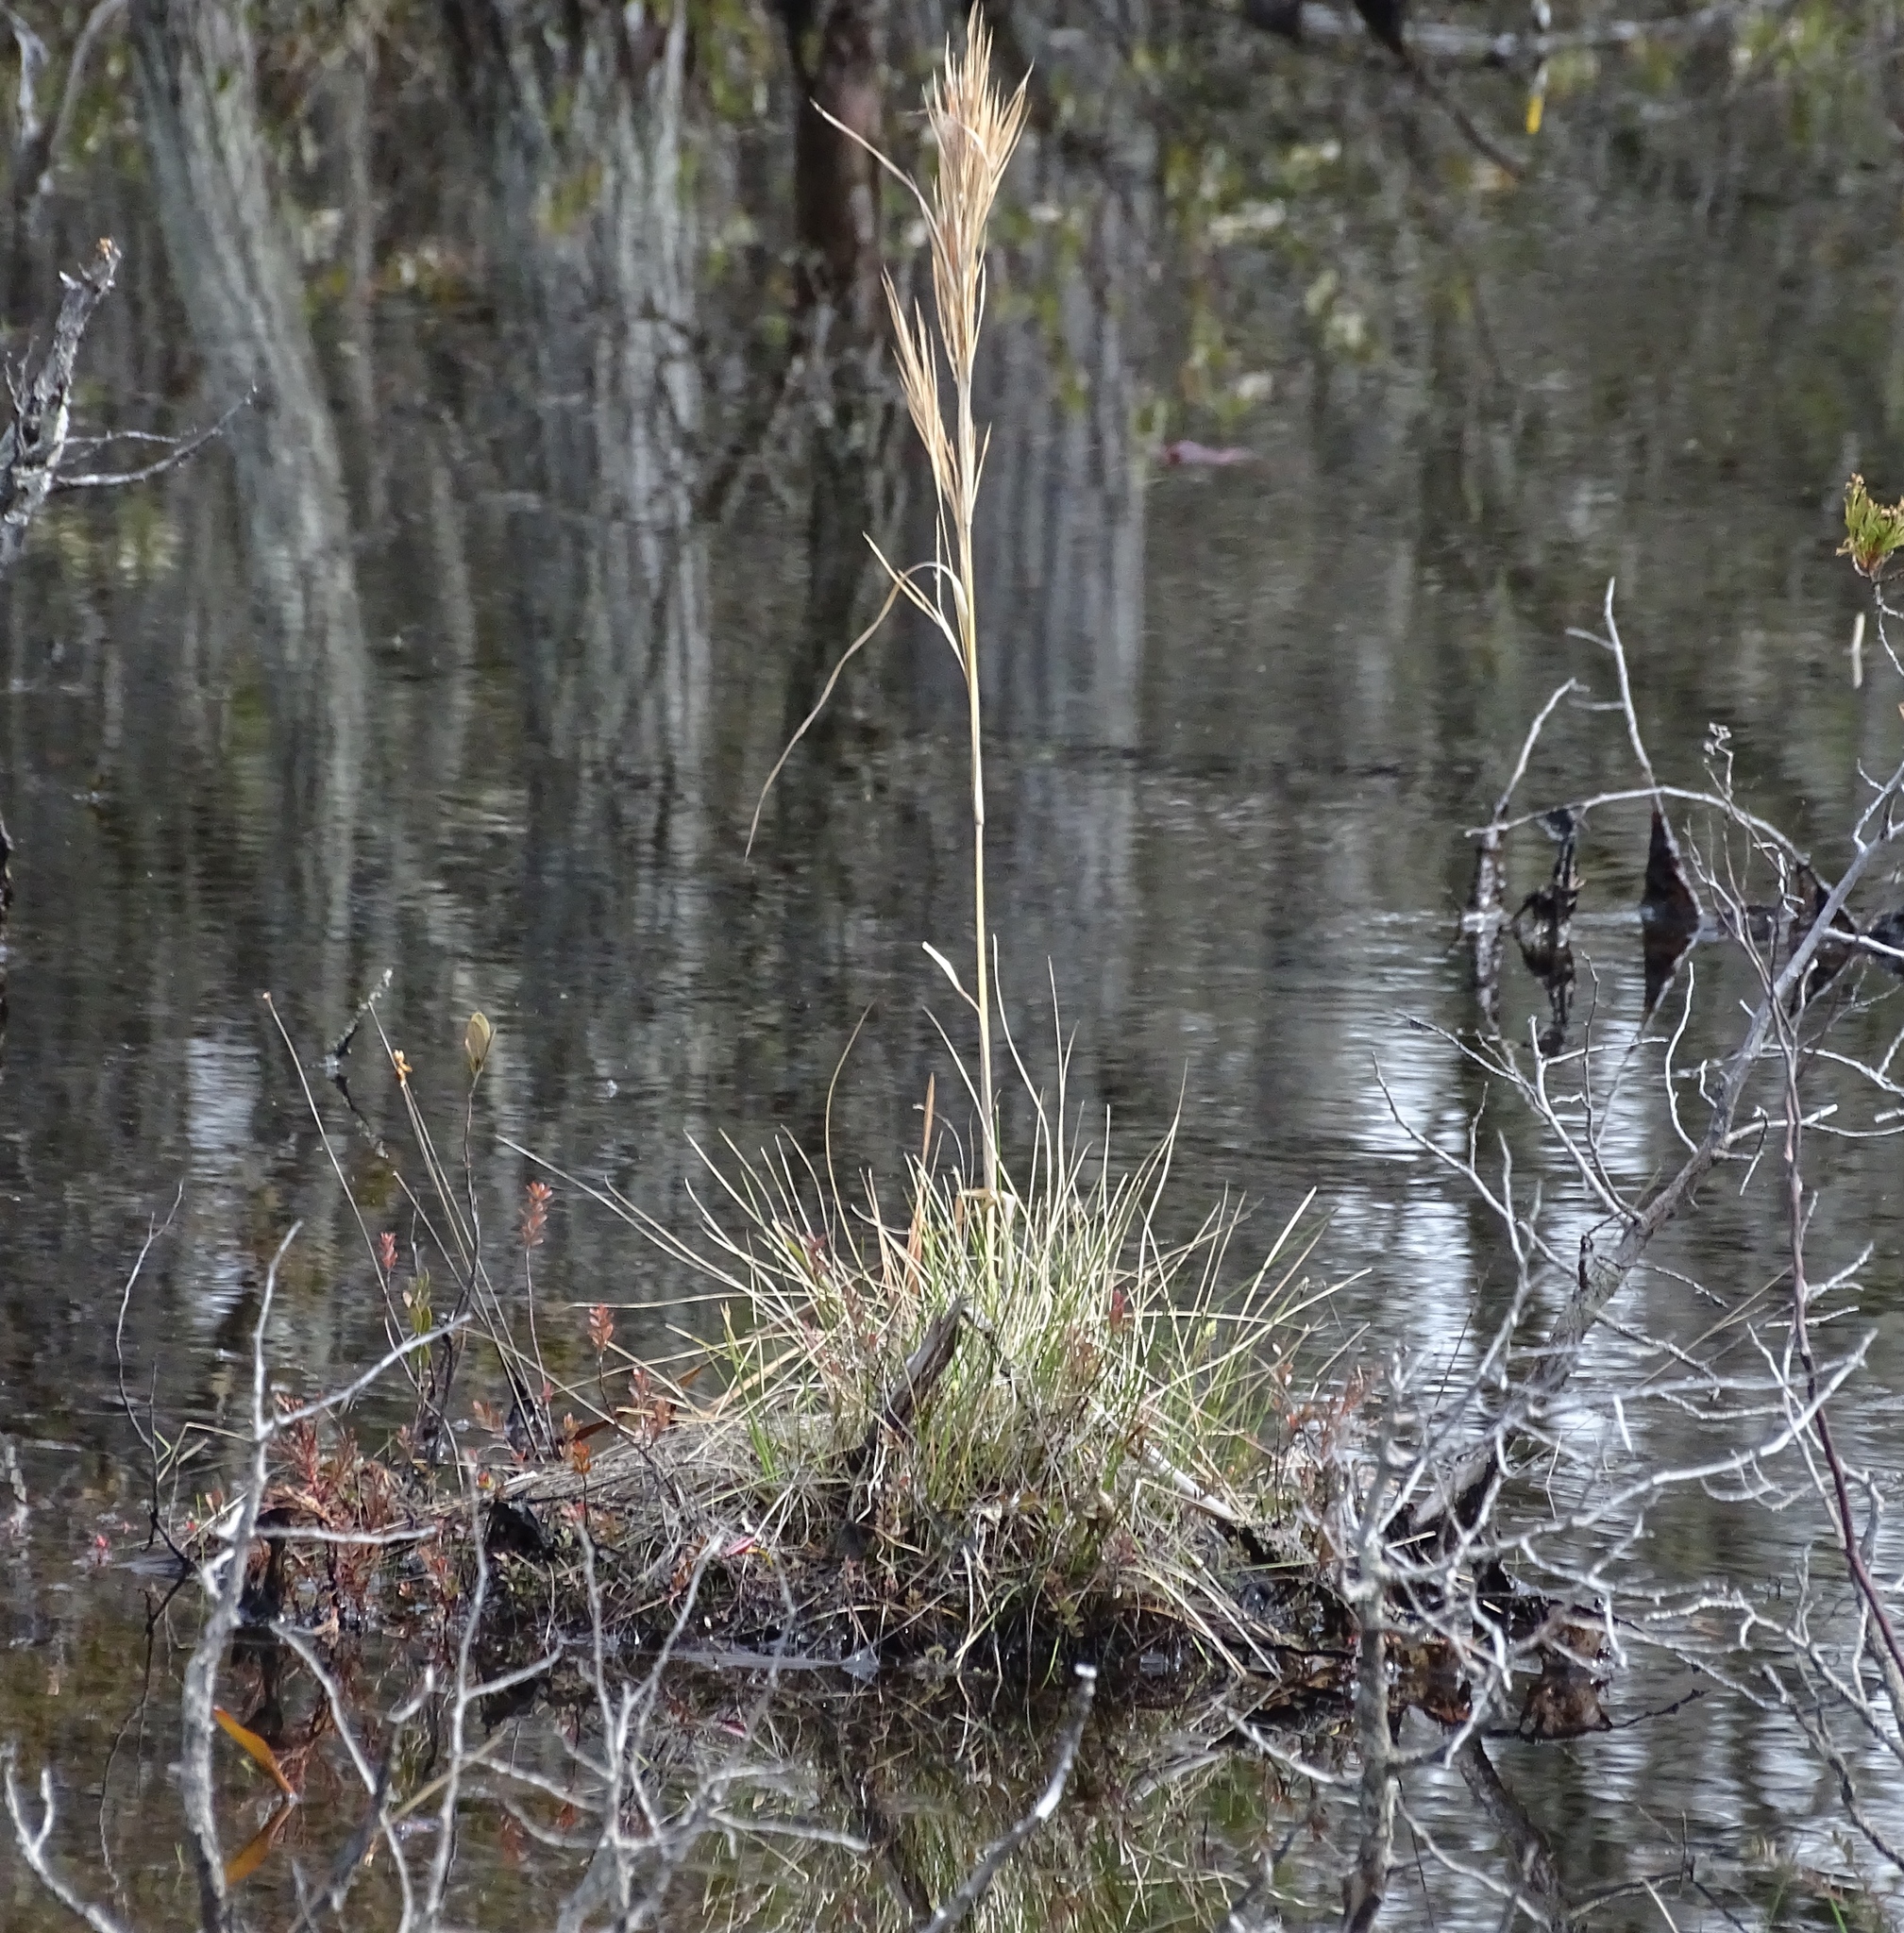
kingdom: Plantae
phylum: Tracheophyta
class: Liliopsida
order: Poales
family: Poaceae
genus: Andropogon
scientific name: Andropogon glomeratus
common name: Bushy beard grass
